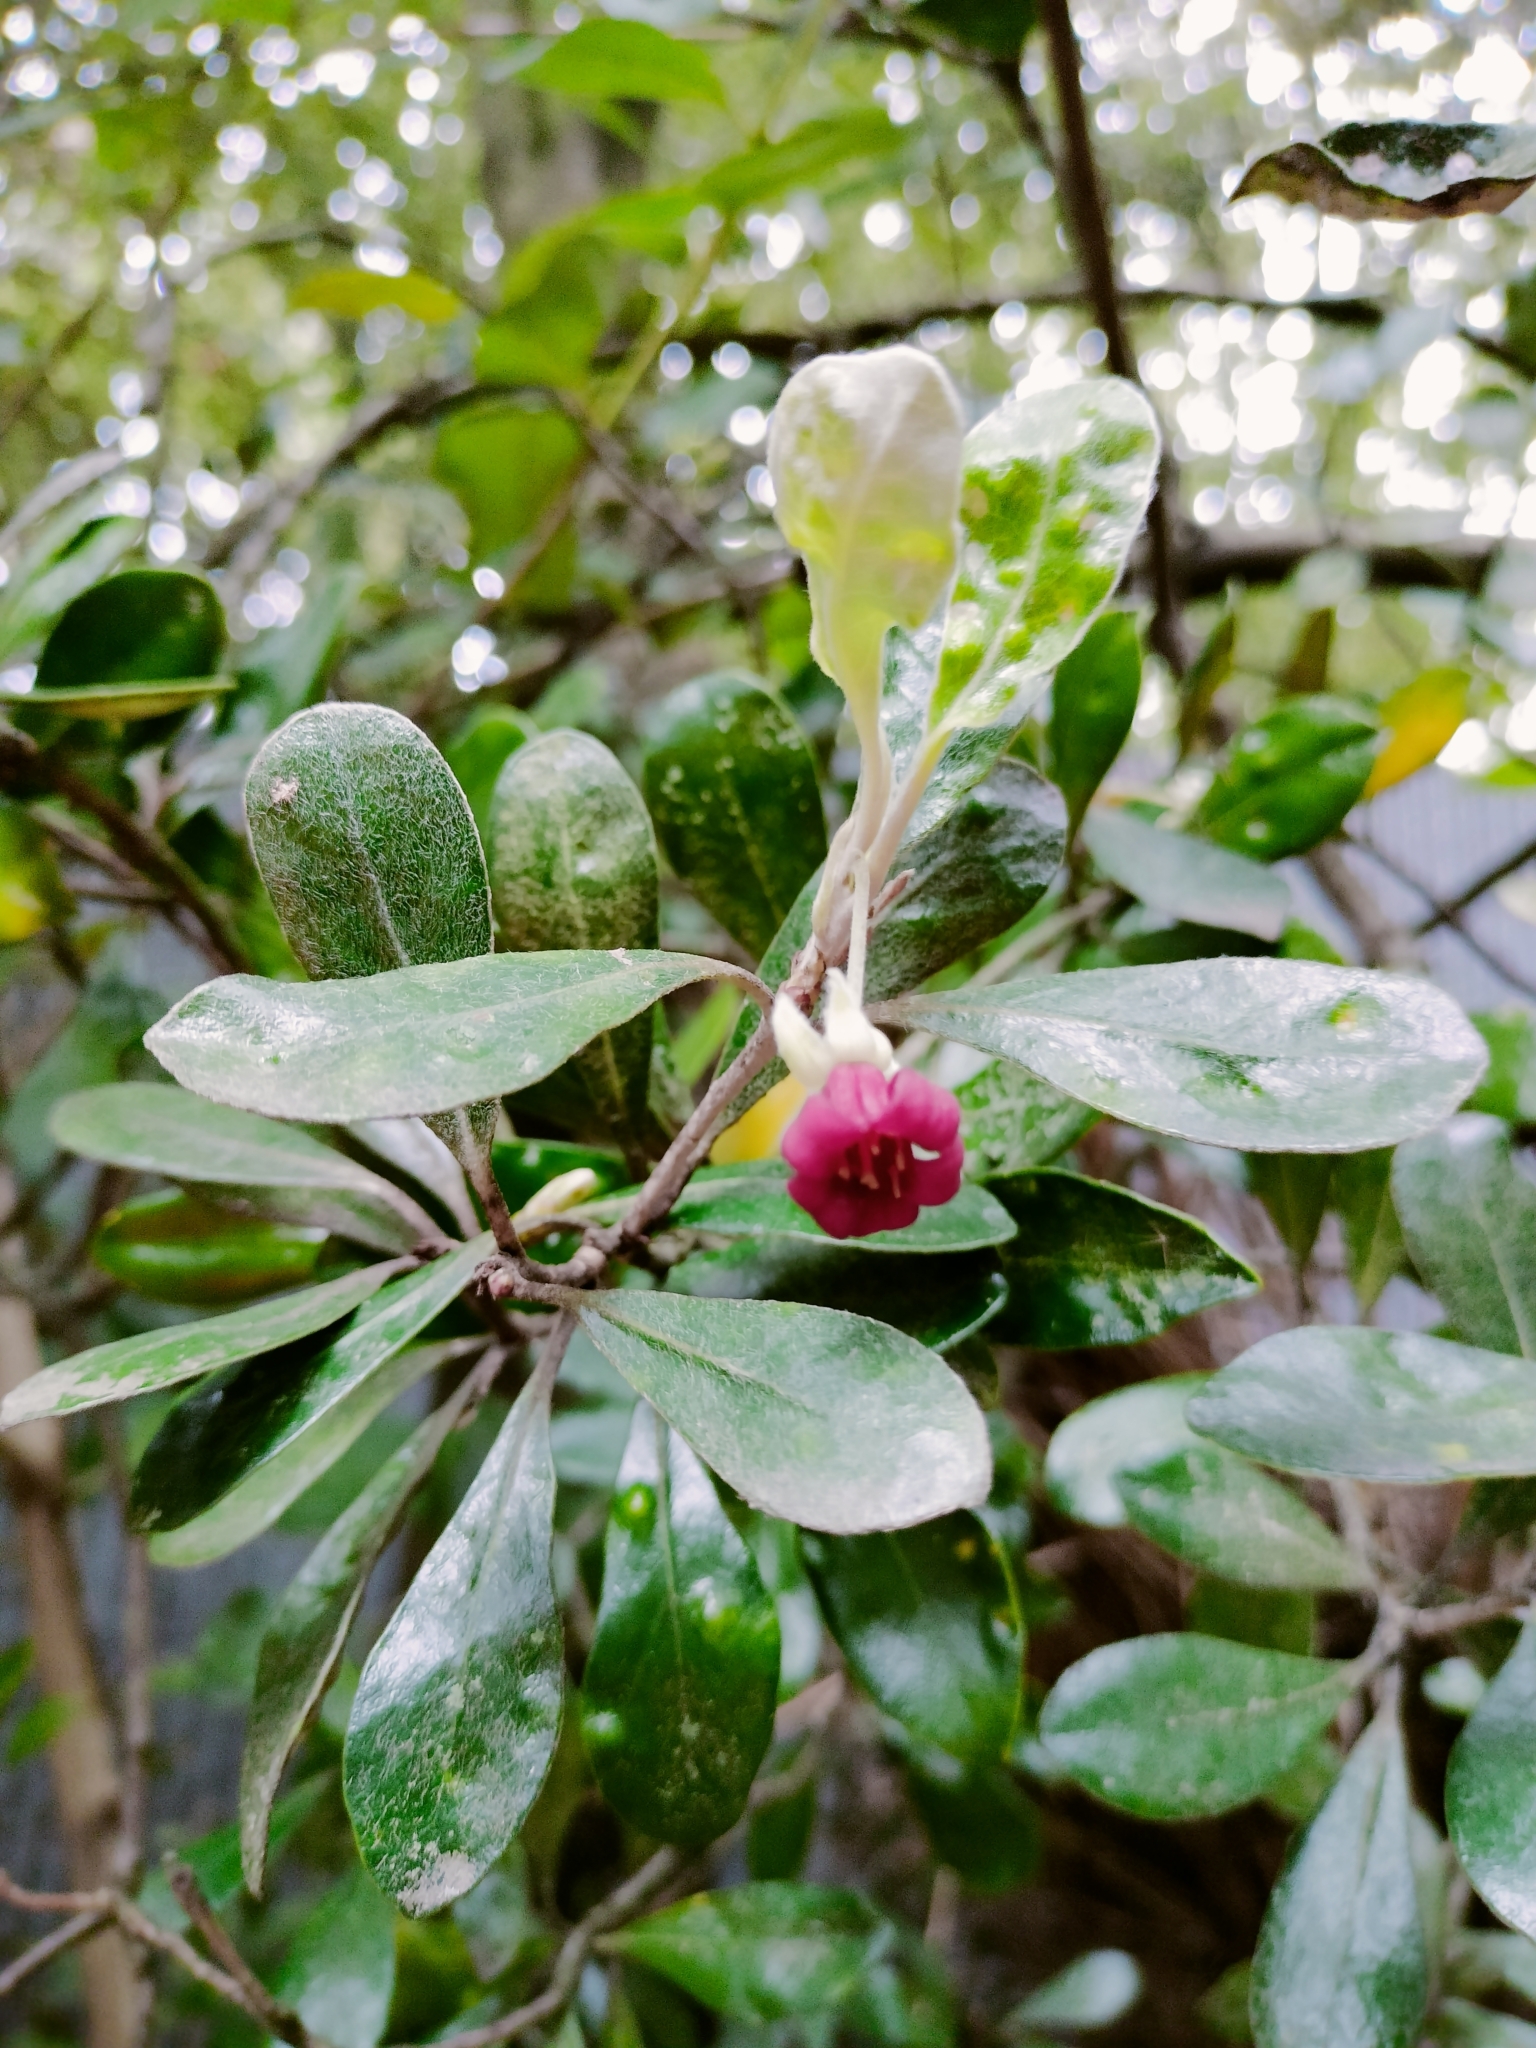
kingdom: Plantae
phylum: Tracheophyta
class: Magnoliopsida
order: Apiales
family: Pittosporaceae
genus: Pittosporum
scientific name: Pittosporum crassifolium
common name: Karo
